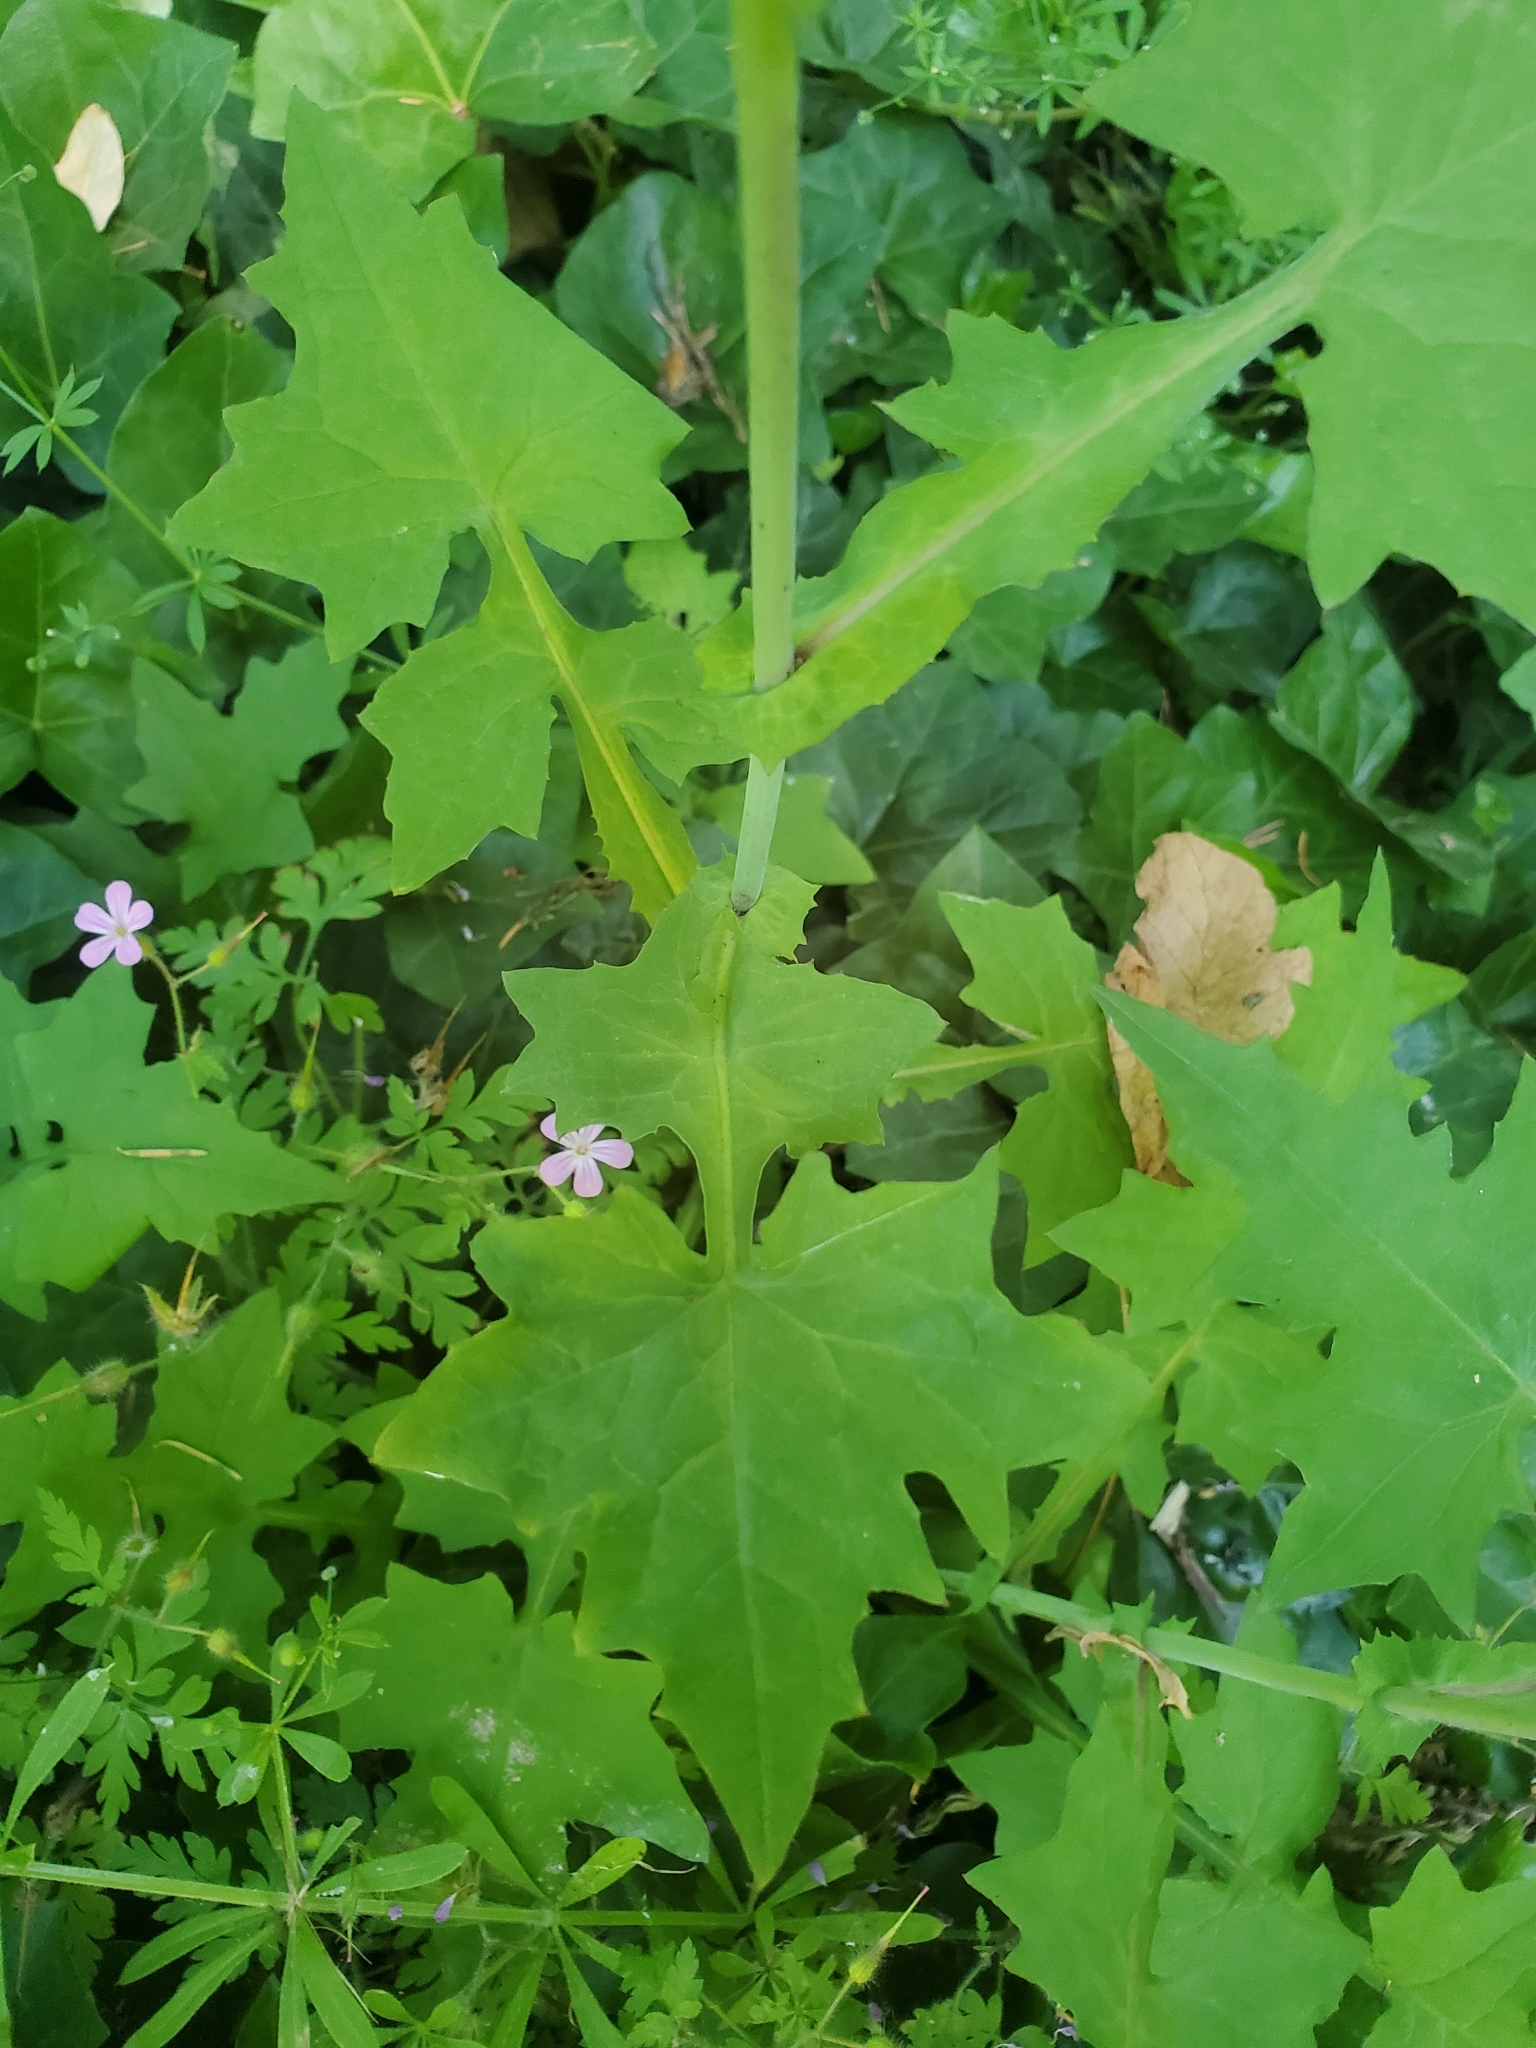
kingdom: Plantae
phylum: Tracheophyta
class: Magnoliopsida
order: Asterales
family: Asteraceae
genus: Mycelis
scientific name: Mycelis muralis
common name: Wall lettuce
